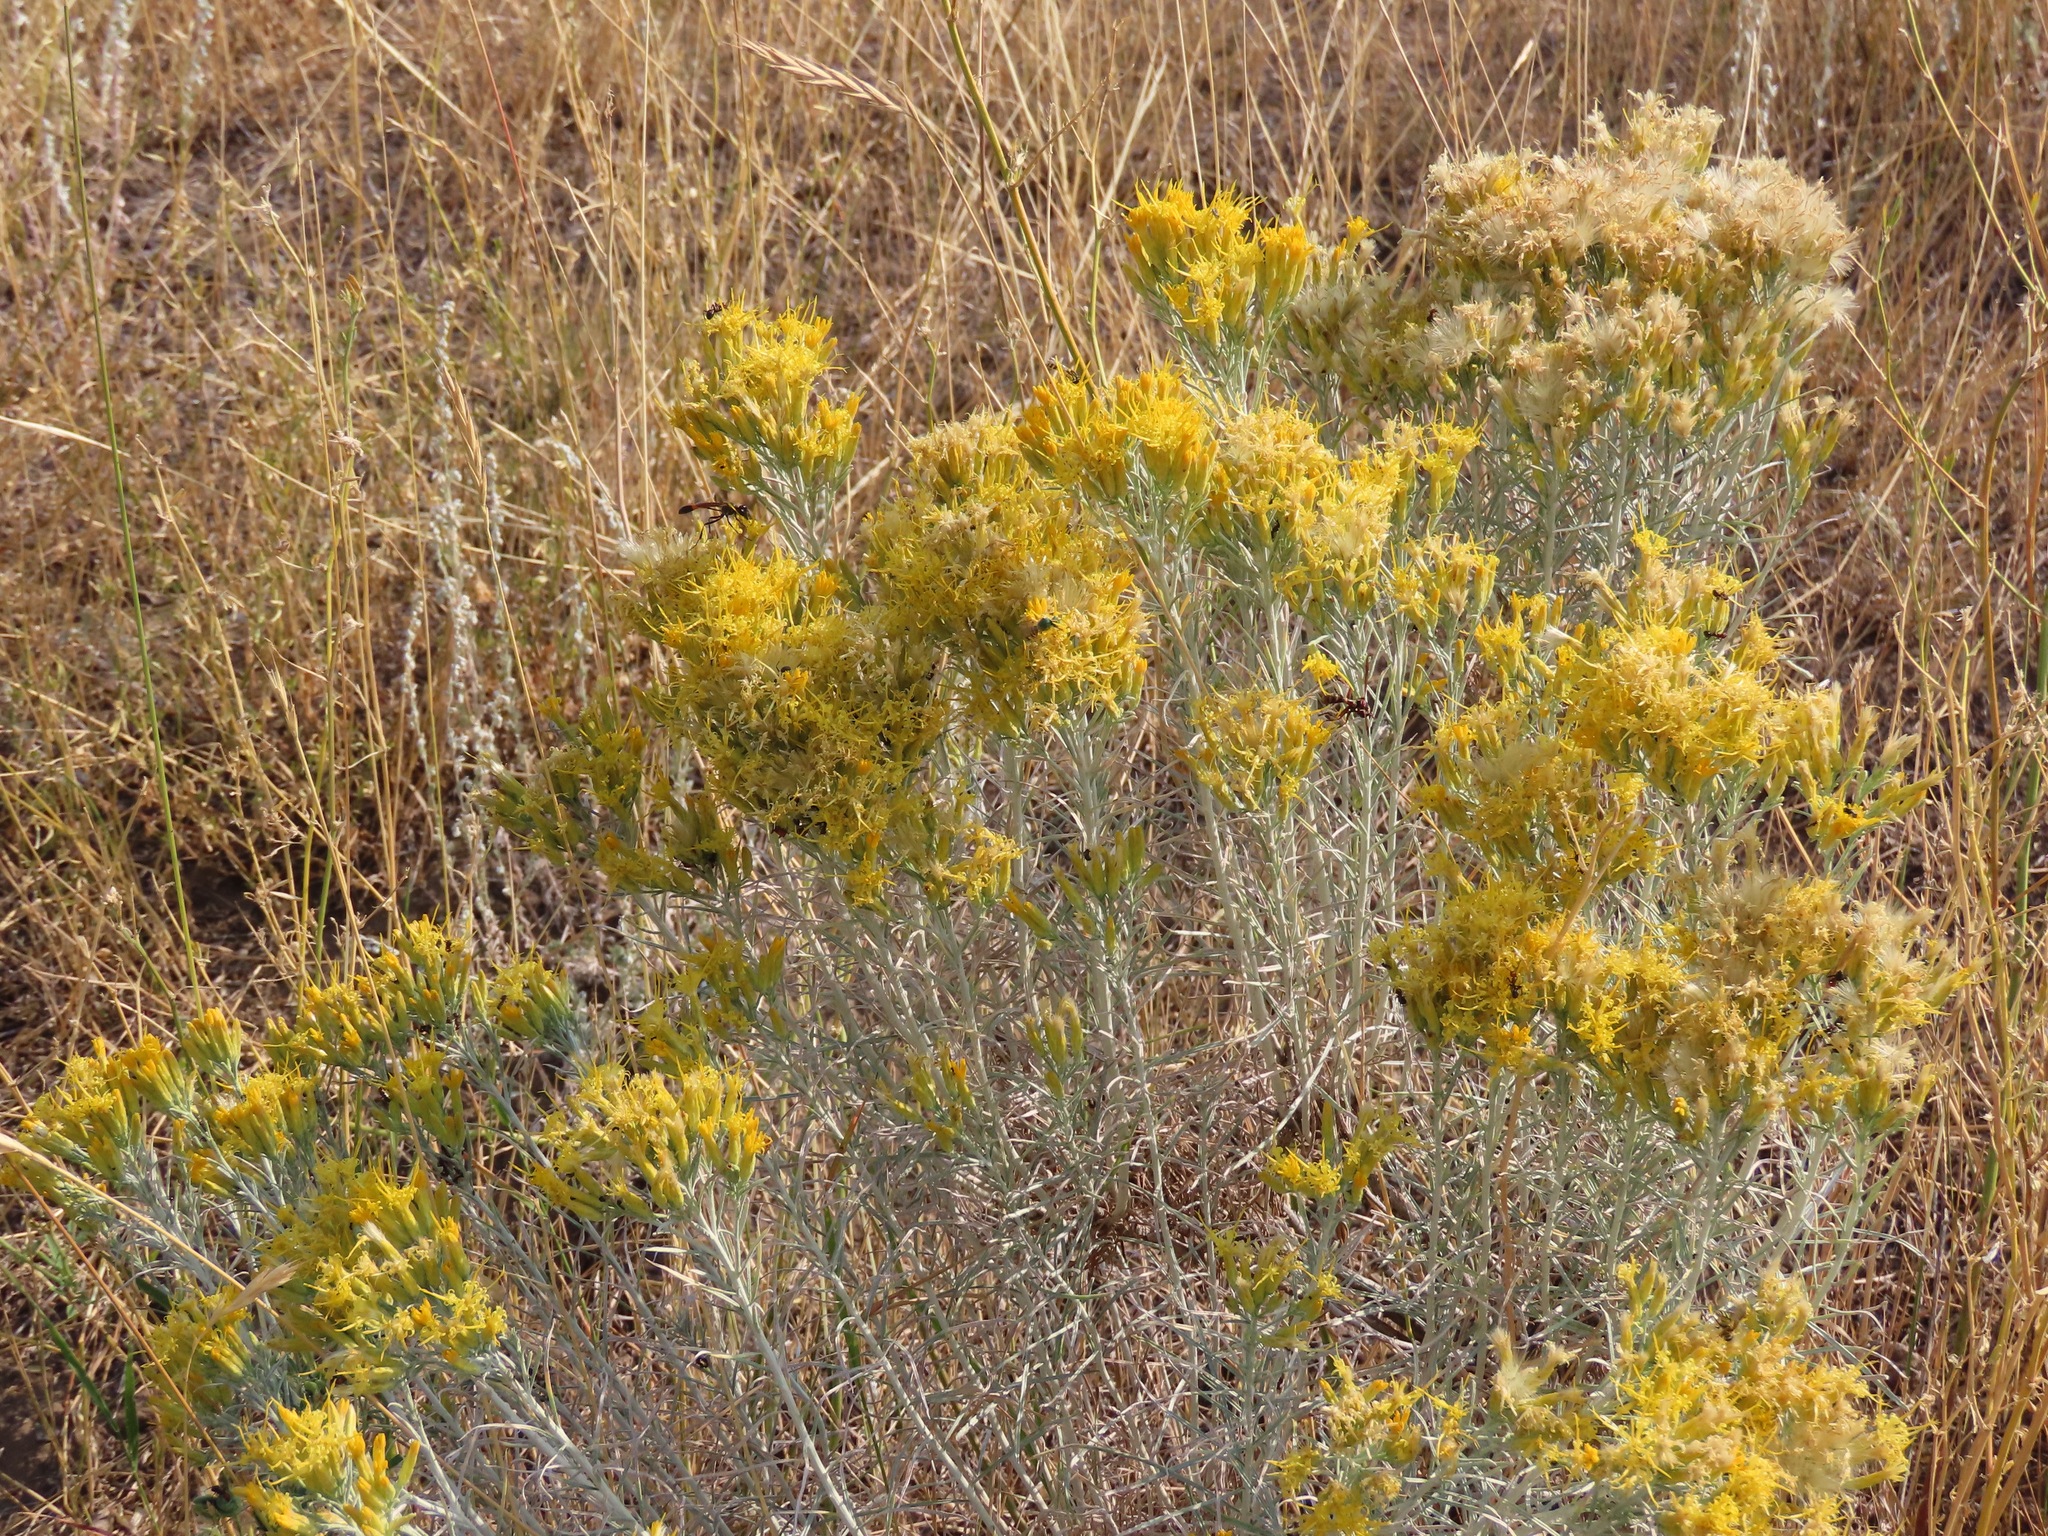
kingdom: Plantae
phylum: Tracheophyta
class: Magnoliopsida
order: Asterales
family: Asteraceae
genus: Ericameria
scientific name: Ericameria nauseosa
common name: Rubber rabbitbrush
